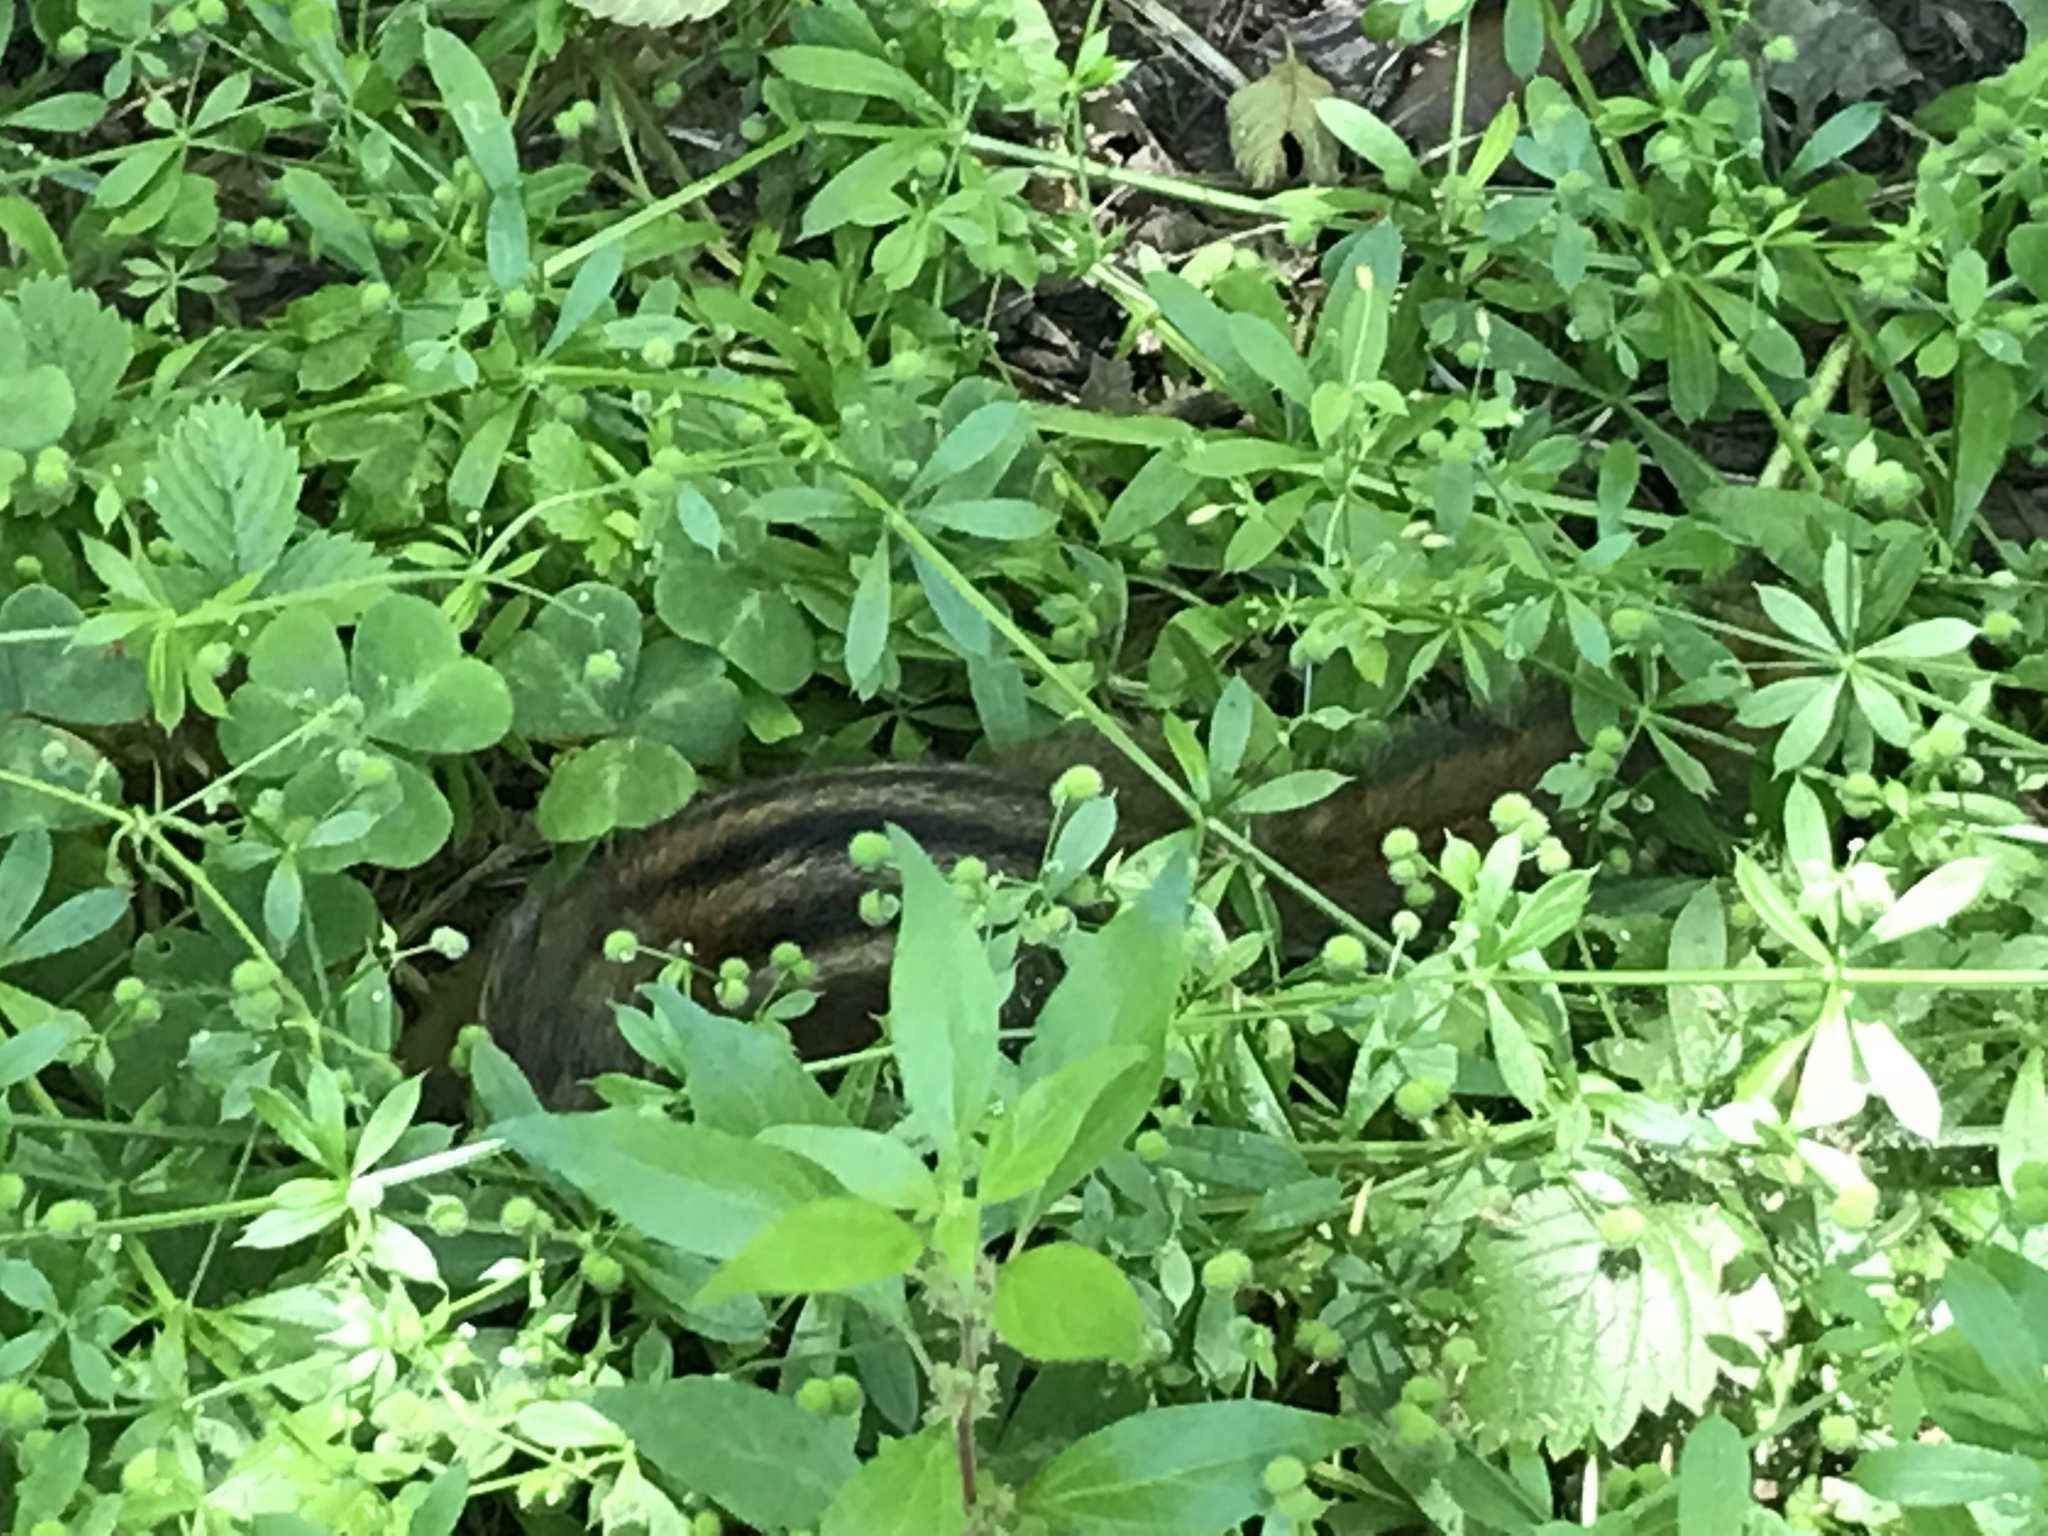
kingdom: Animalia
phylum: Chordata
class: Mammalia
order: Rodentia
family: Sciuridae
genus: Tamias
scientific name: Tamias sonomae
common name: Sonoma chipmunk
